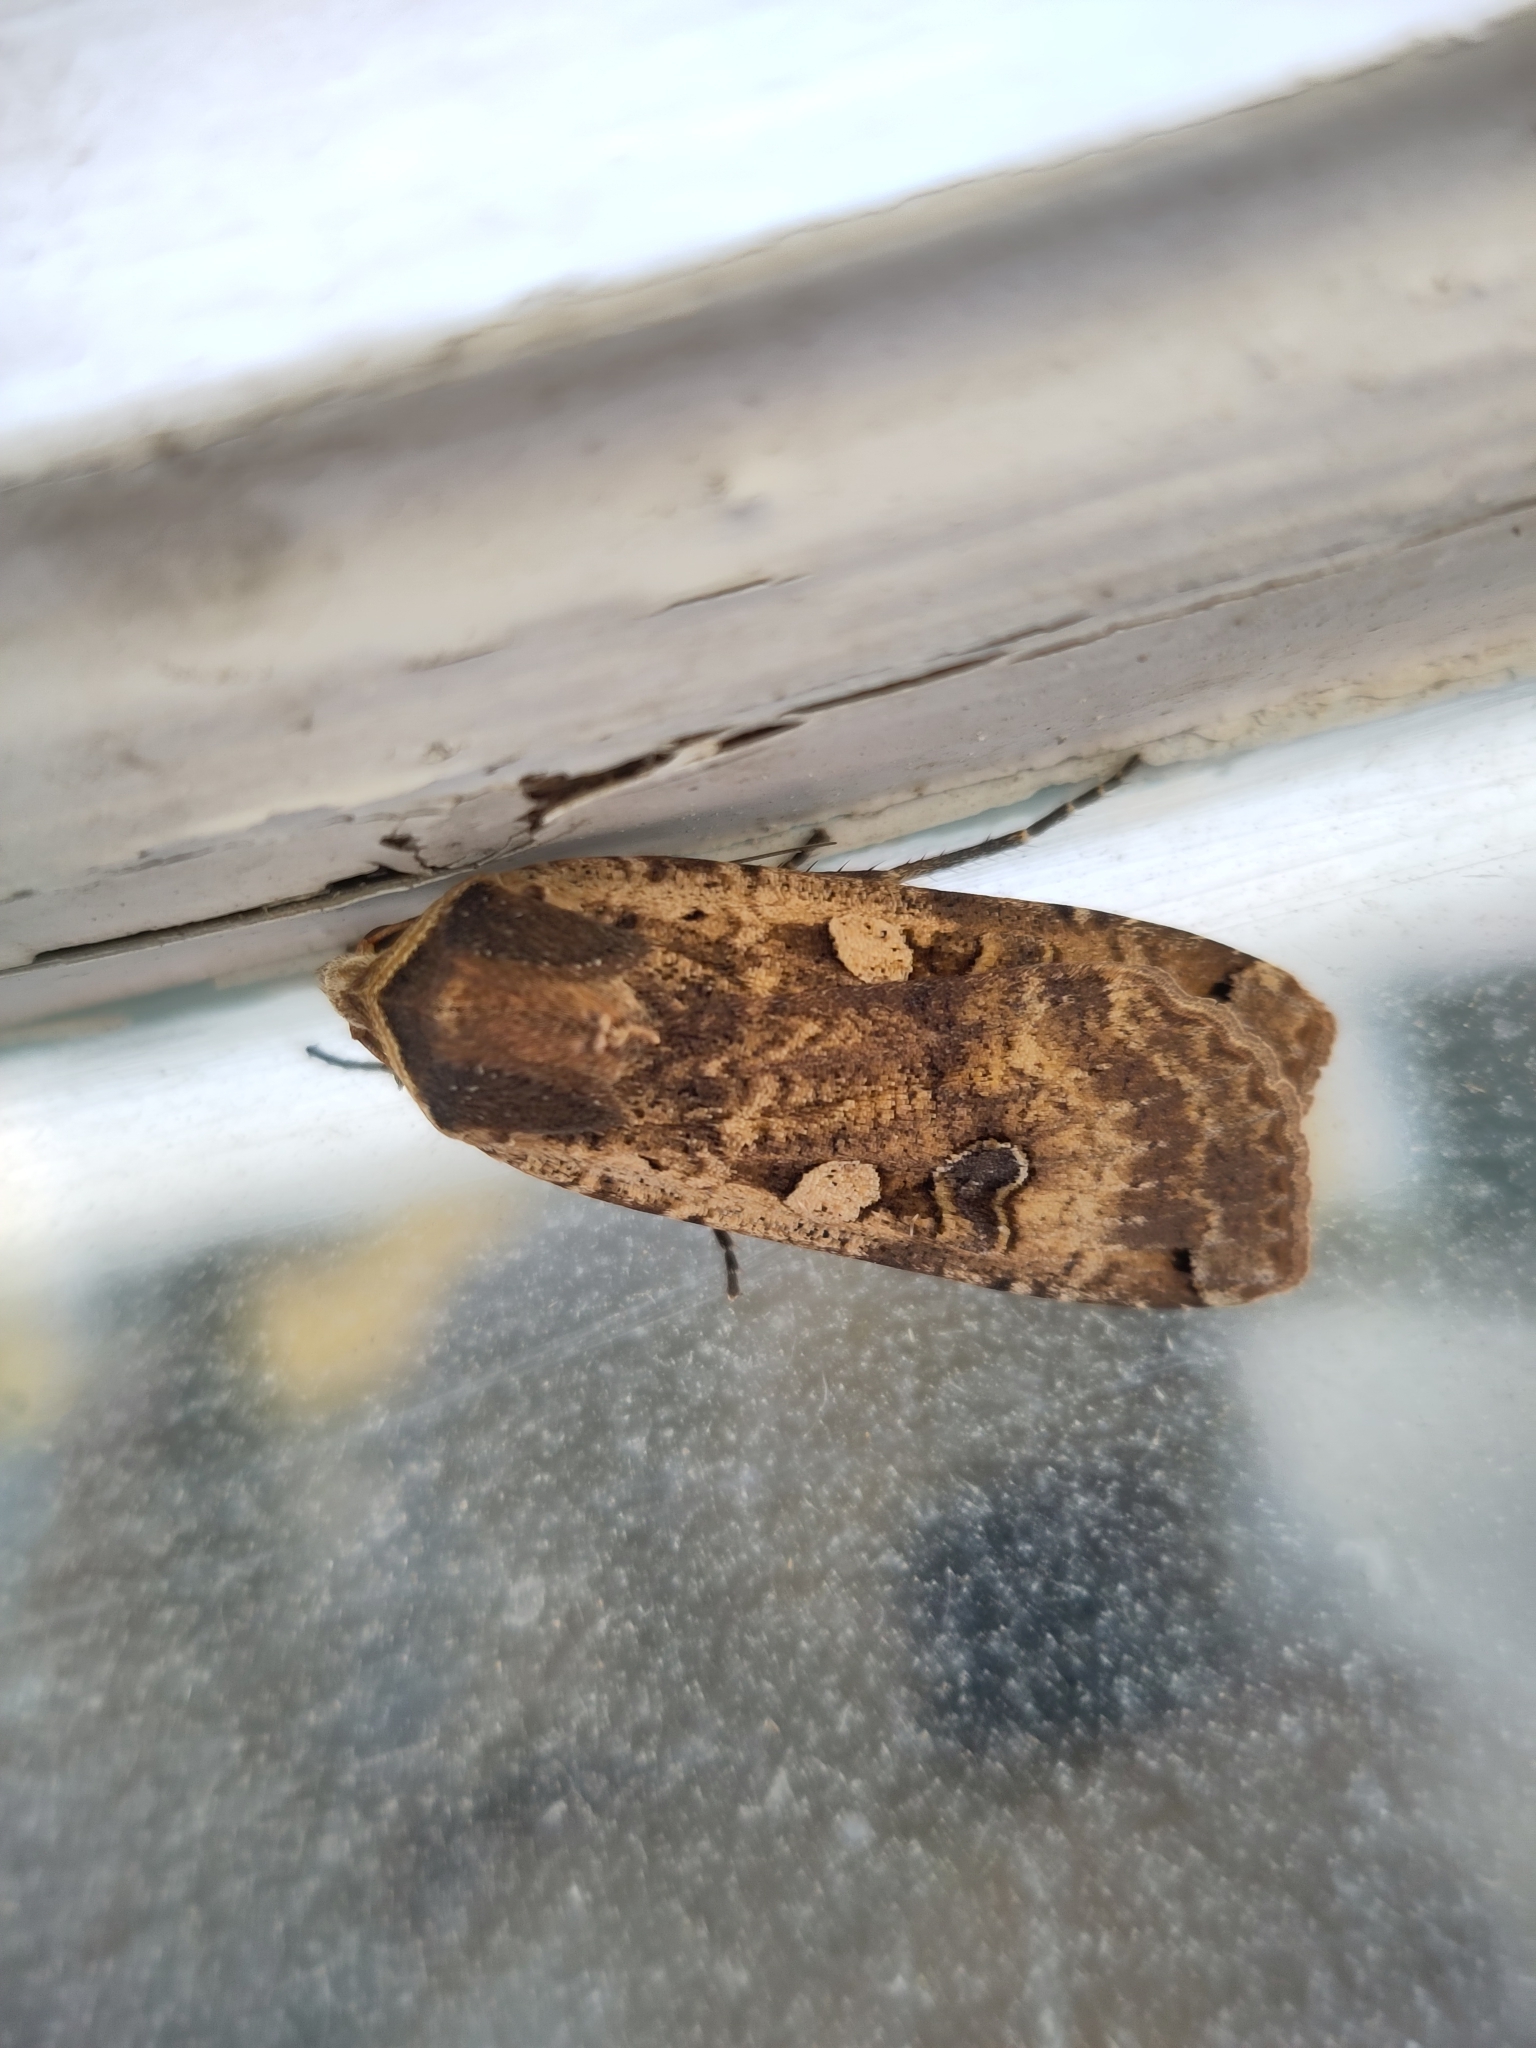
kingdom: Animalia
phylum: Arthropoda
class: Insecta
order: Lepidoptera
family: Noctuidae
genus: Noctua
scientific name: Noctua pronuba
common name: Large yellow underwing
